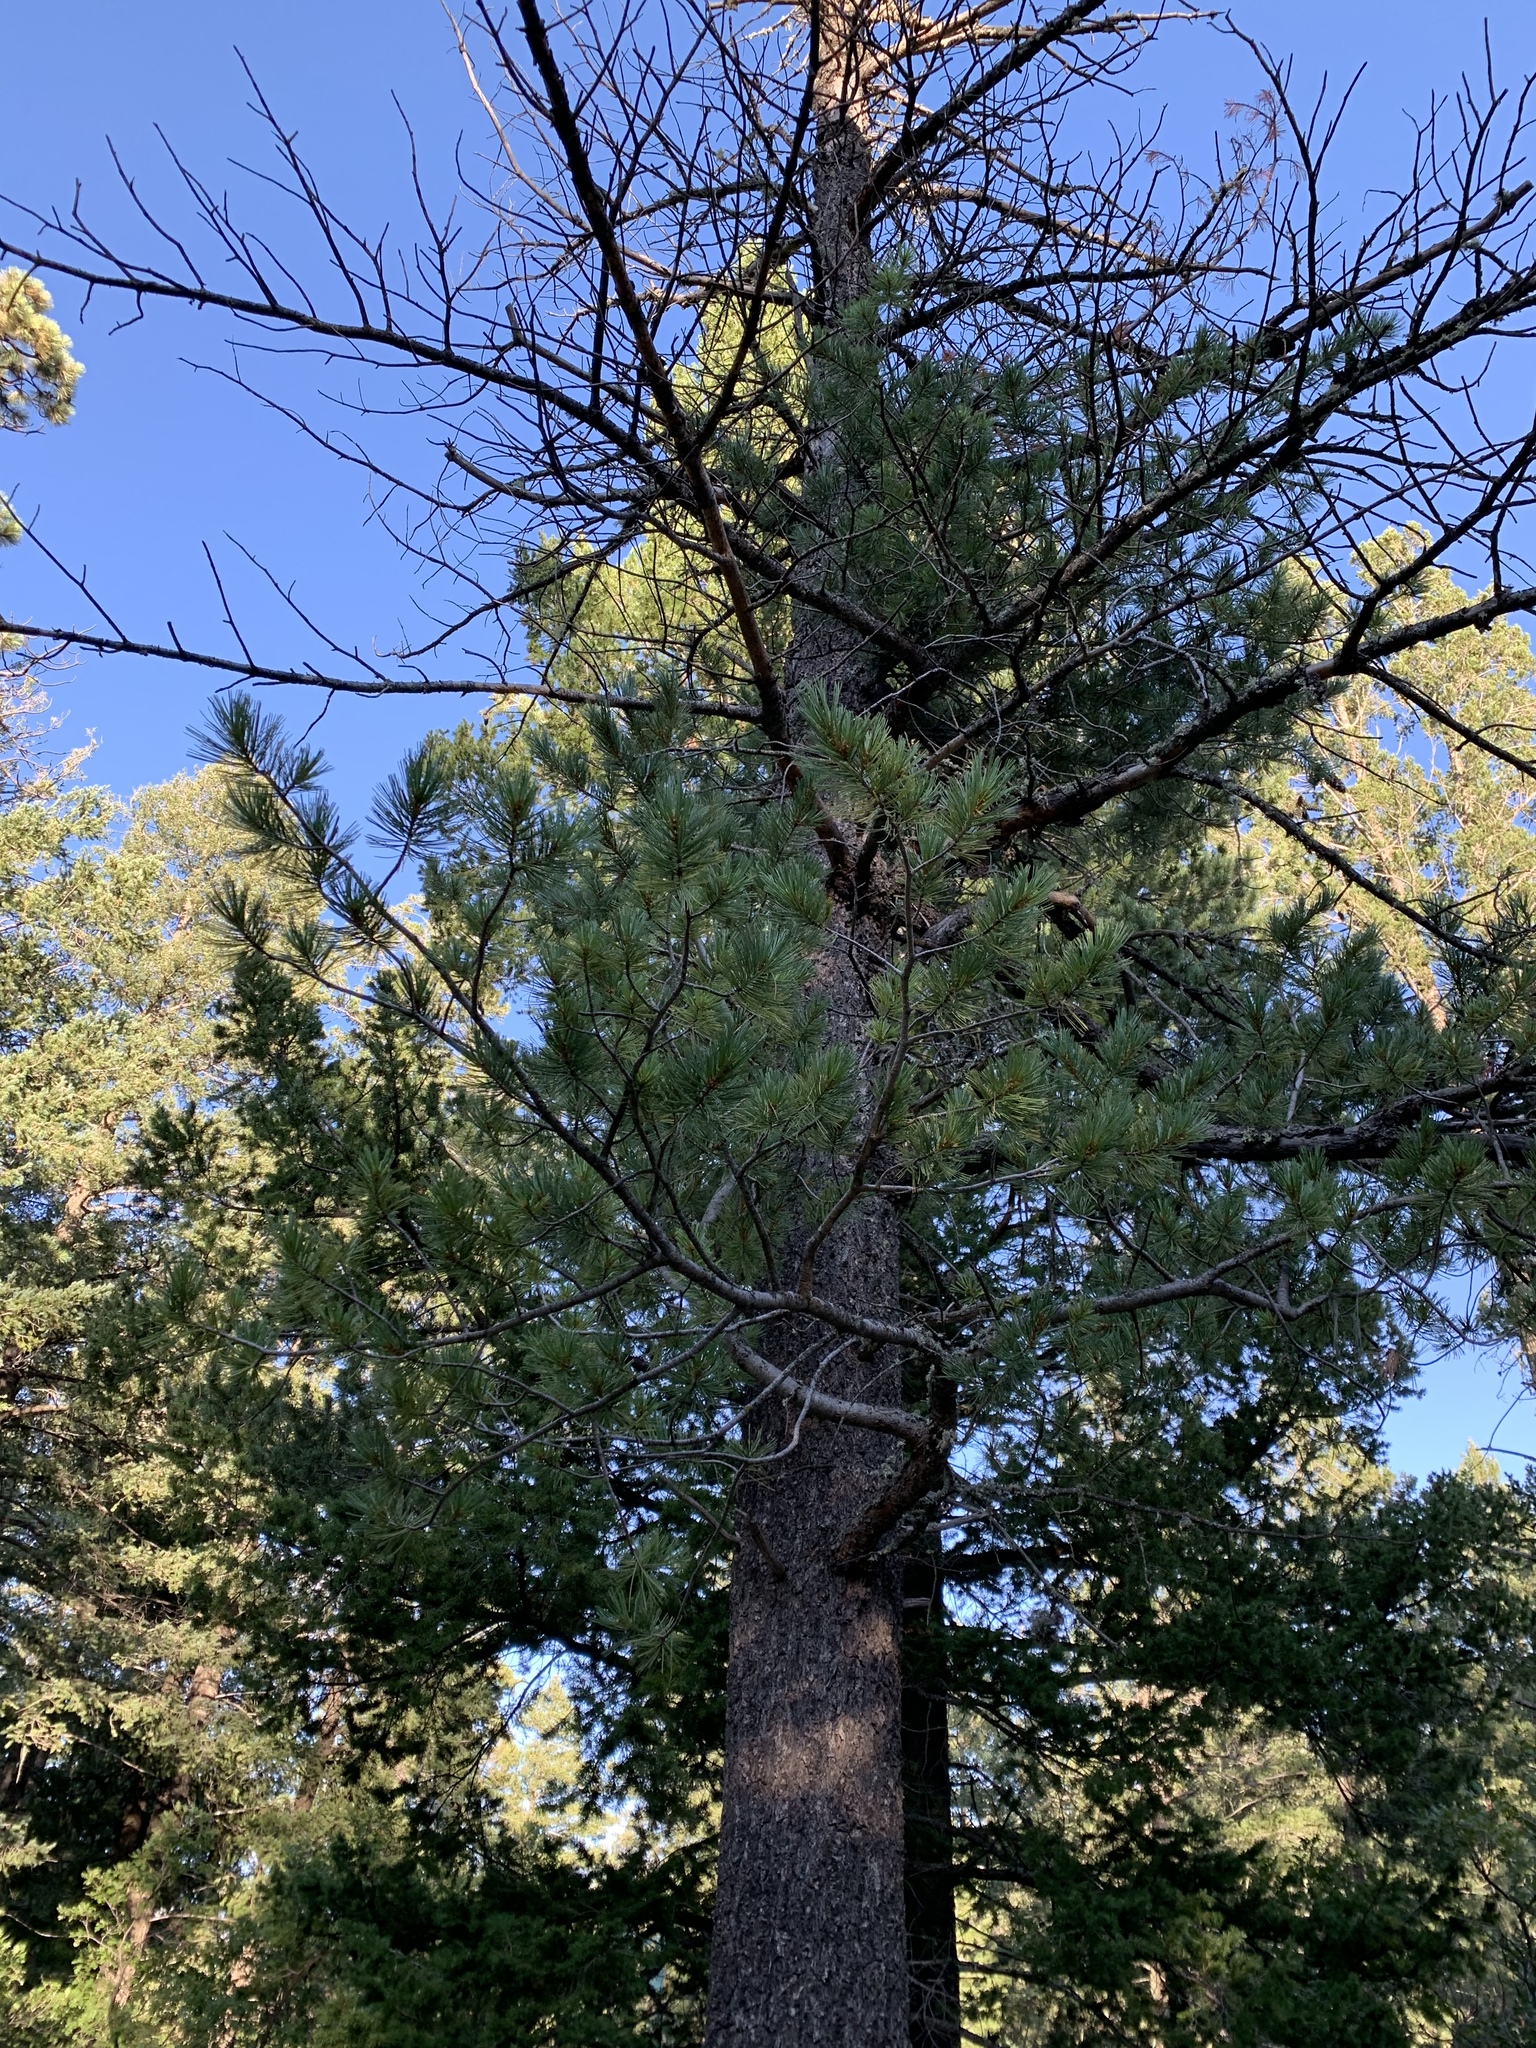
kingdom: Plantae
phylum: Tracheophyta
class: Pinopsida
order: Pinales
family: Pinaceae
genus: Pinus
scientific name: Pinus strobiformis
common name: Southwestern white pine
